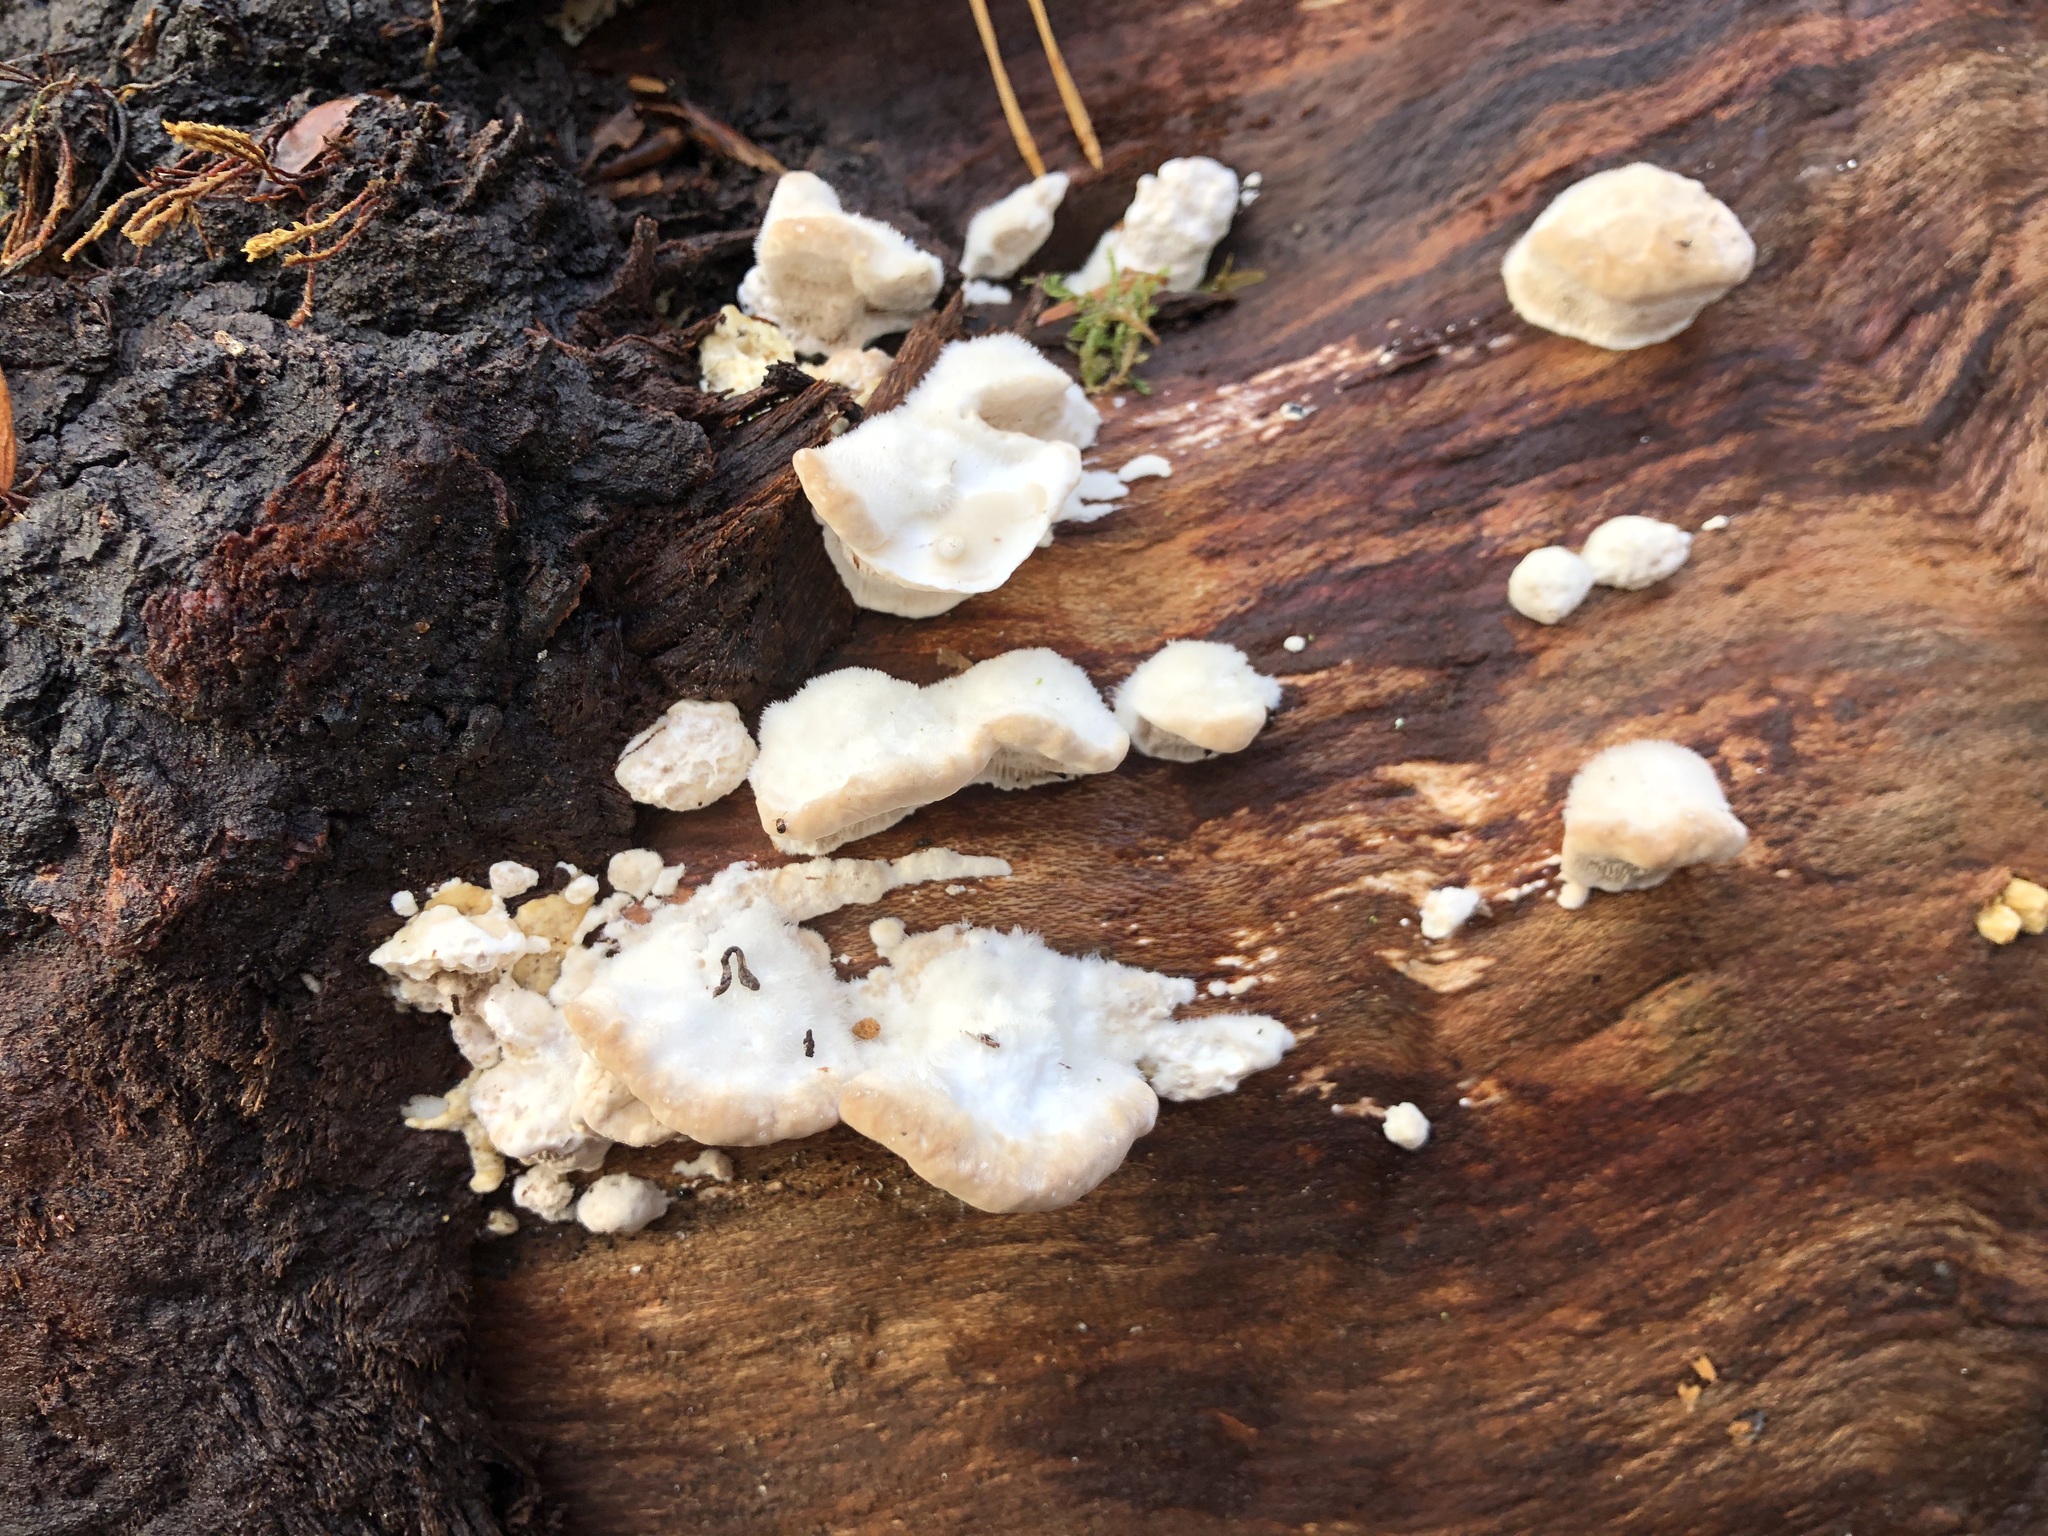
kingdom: Fungi
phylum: Basidiomycota
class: Agaricomycetes
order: Polyporales
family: Polyporaceae
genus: Trametes
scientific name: Trametes hirsuta
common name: Hairy bracket
